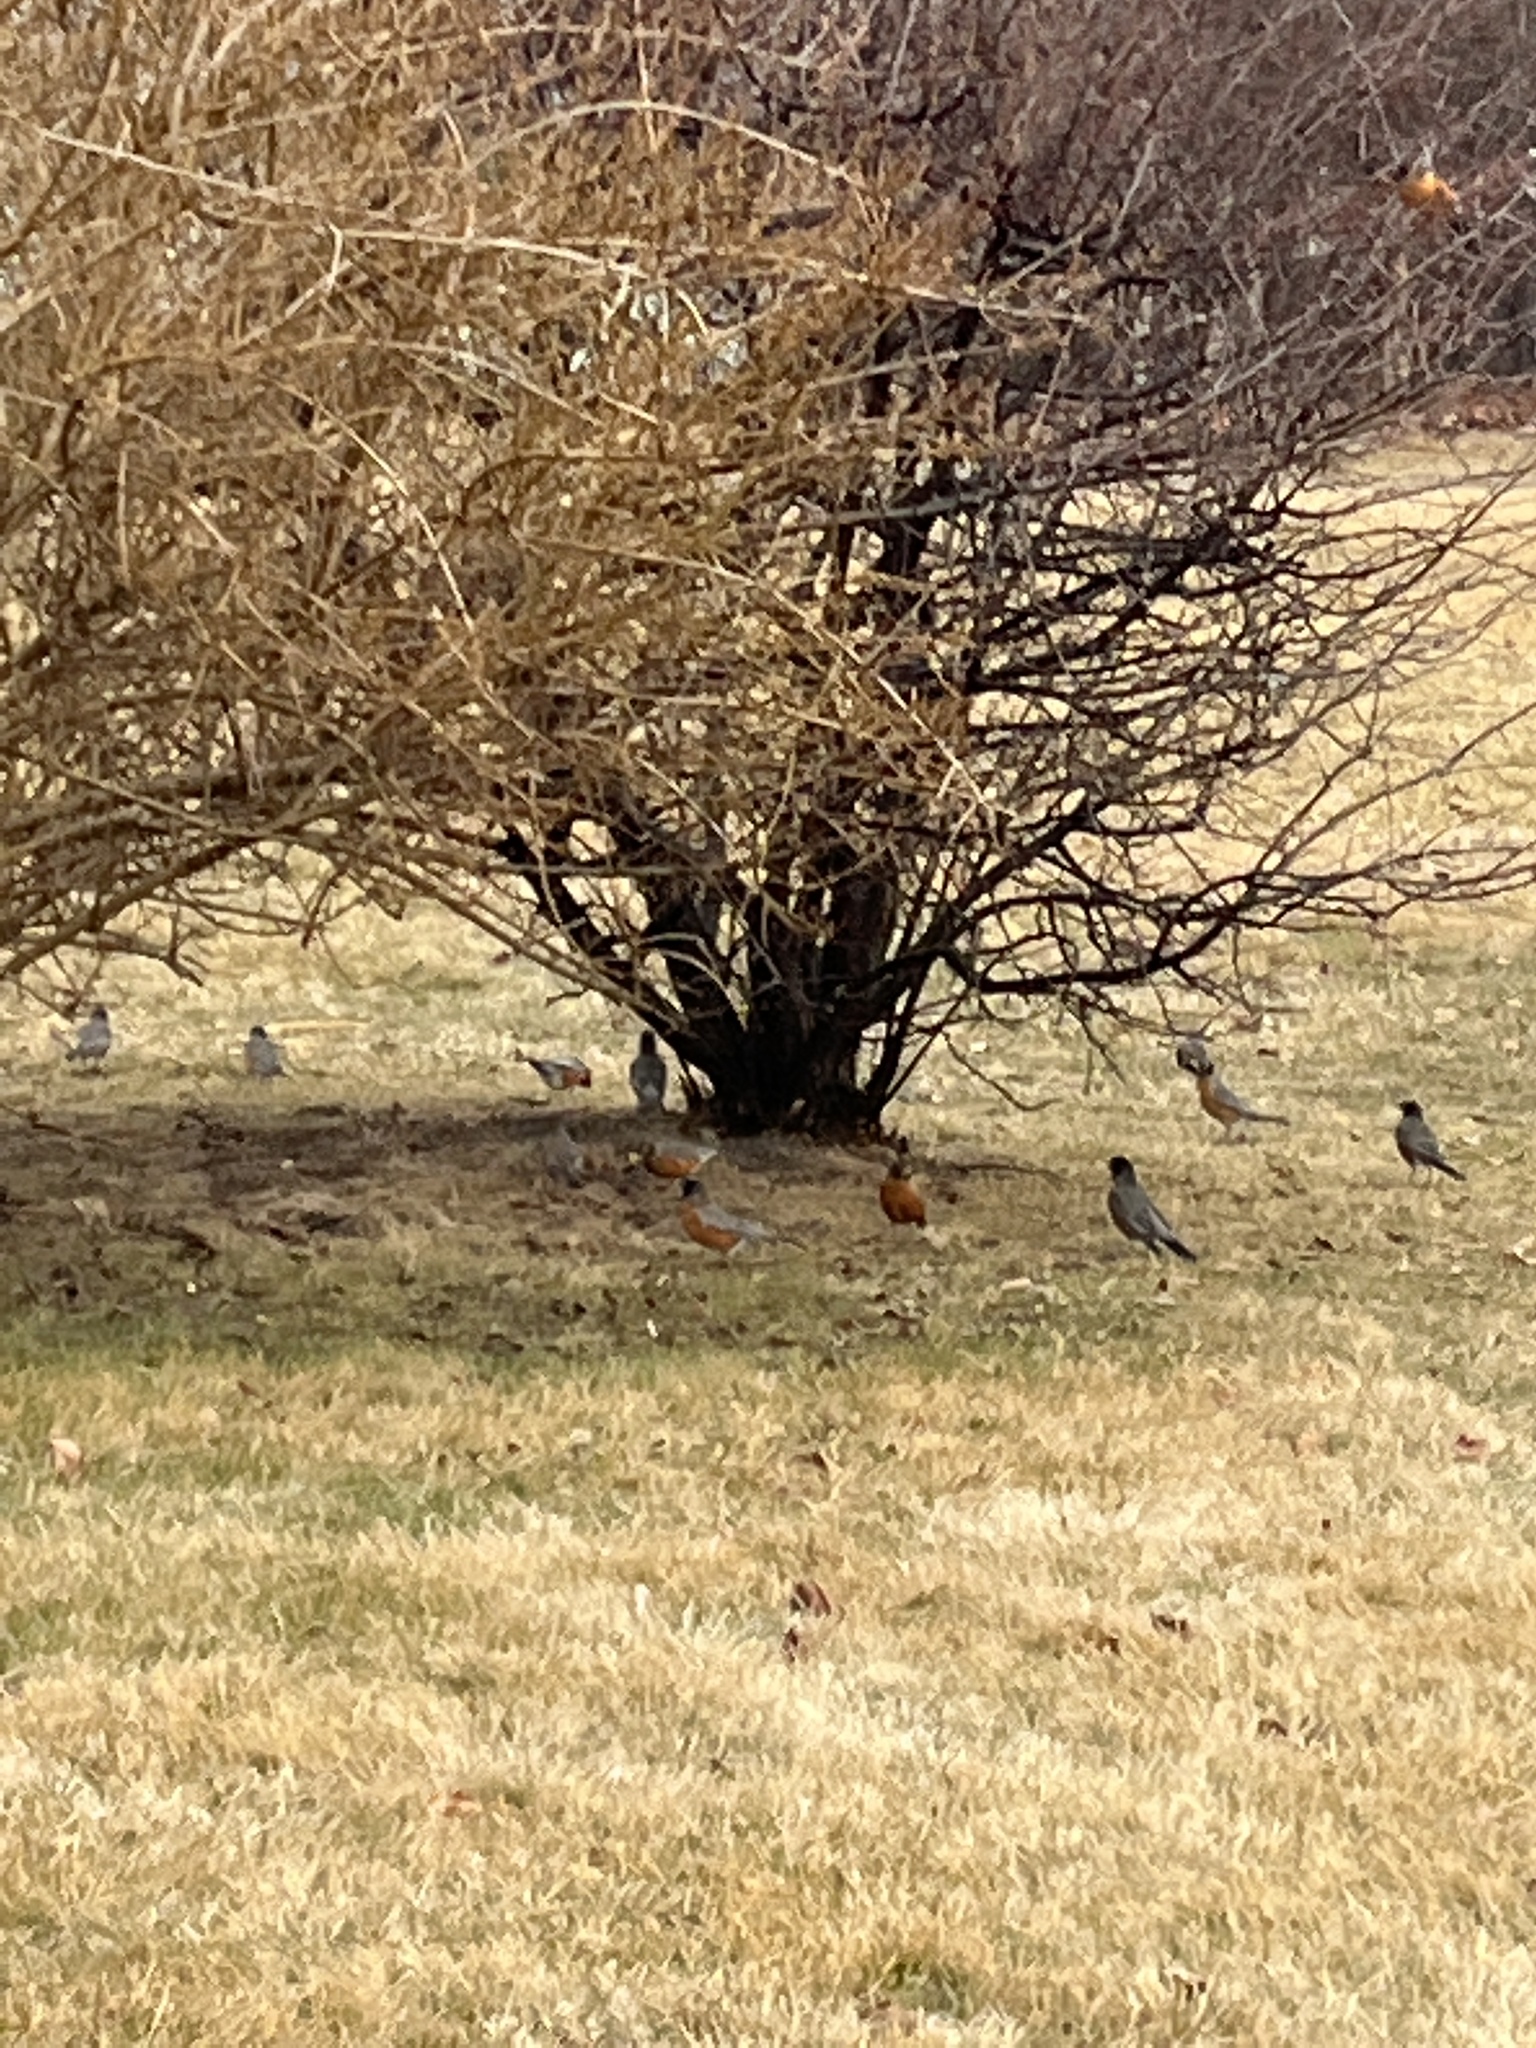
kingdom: Animalia
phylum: Chordata
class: Aves
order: Passeriformes
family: Turdidae
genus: Turdus
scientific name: Turdus migratorius
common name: American robin
